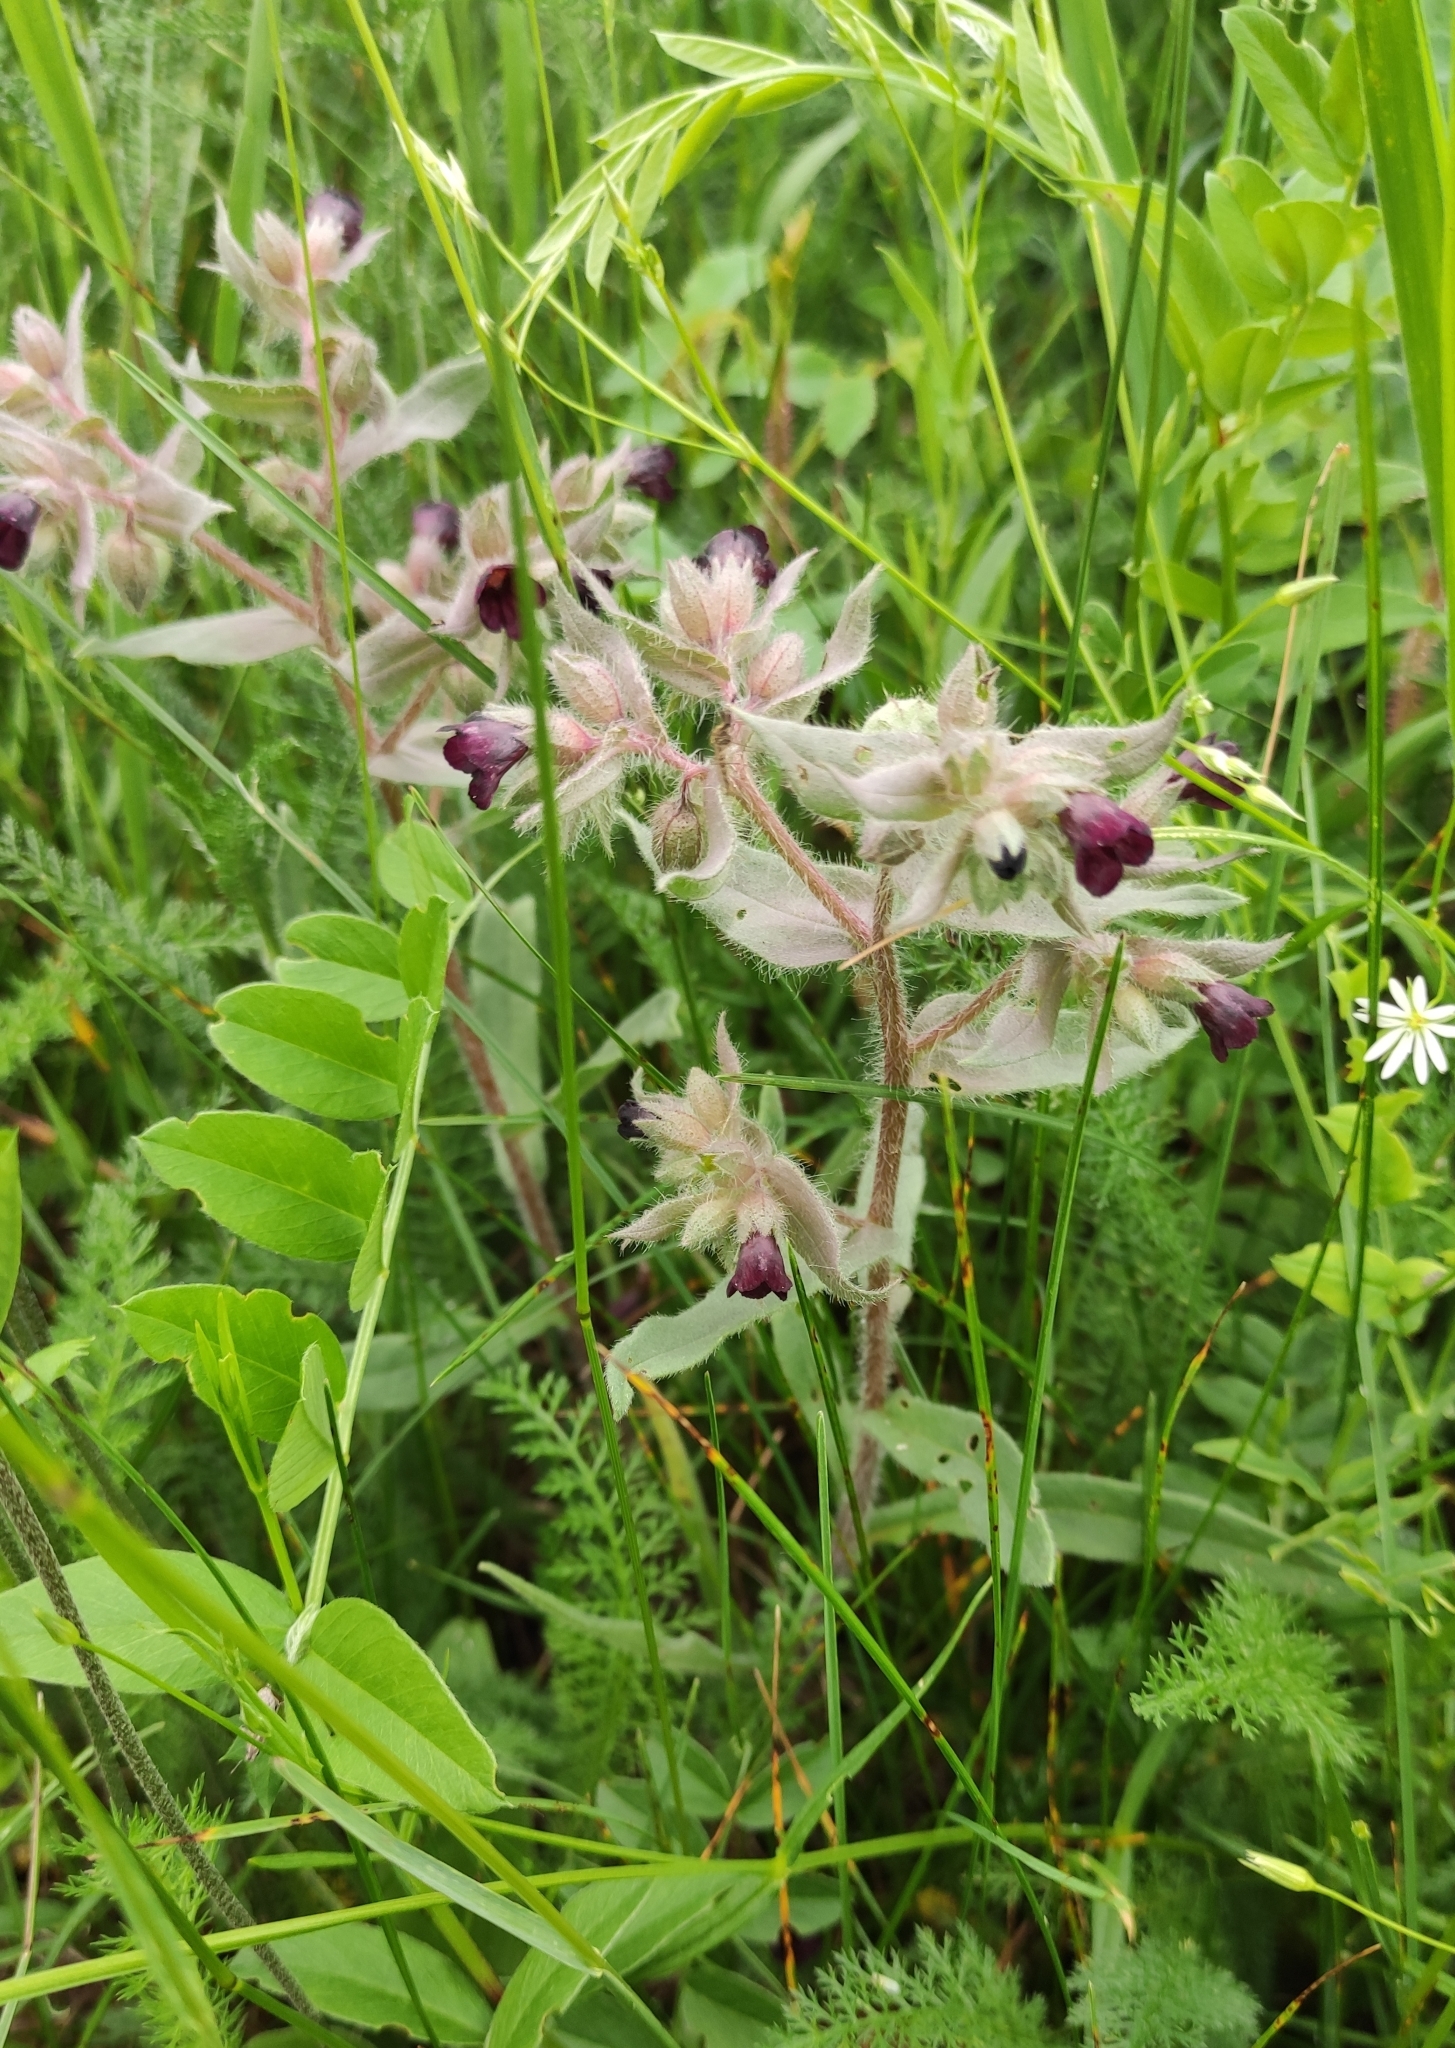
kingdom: Plantae
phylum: Tracheophyta
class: Magnoliopsida
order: Boraginales
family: Boraginaceae
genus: Nonea
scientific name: Nonea pulla
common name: Brown nonea
